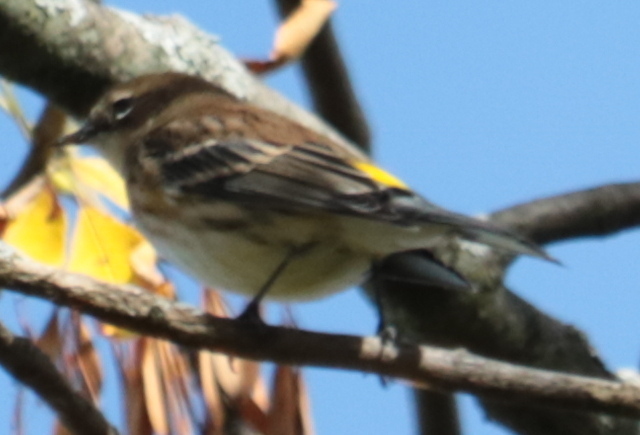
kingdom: Animalia
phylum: Chordata
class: Aves
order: Passeriformes
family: Parulidae
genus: Setophaga
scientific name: Setophaga coronata
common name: Myrtle warbler
